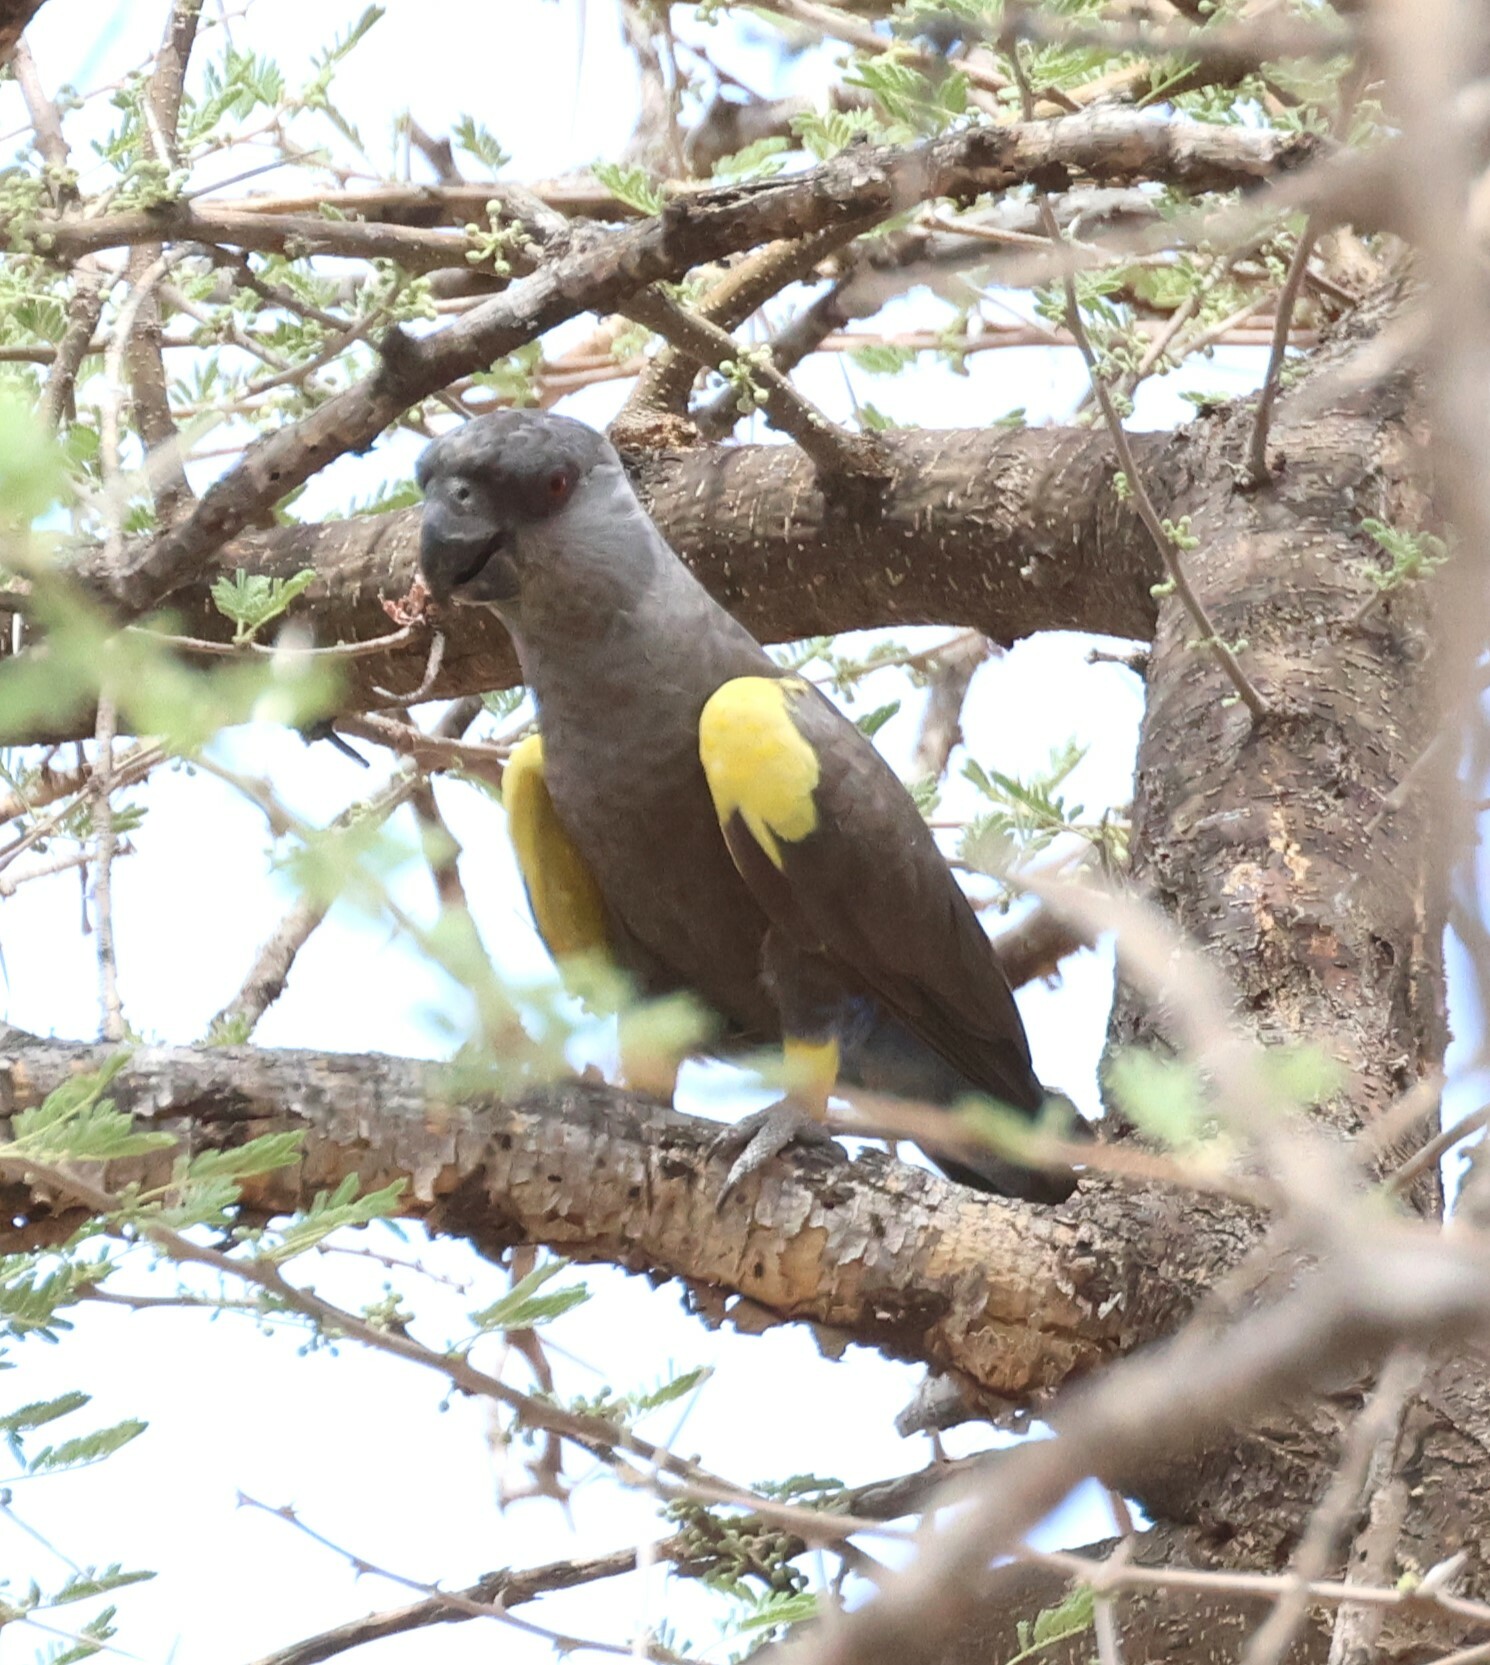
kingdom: Animalia
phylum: Chordata
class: Aves
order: Psittaciformes
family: Psittacidae
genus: Poicephalus
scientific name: Poicephalus rueppellii
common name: Rüppell's parrot
